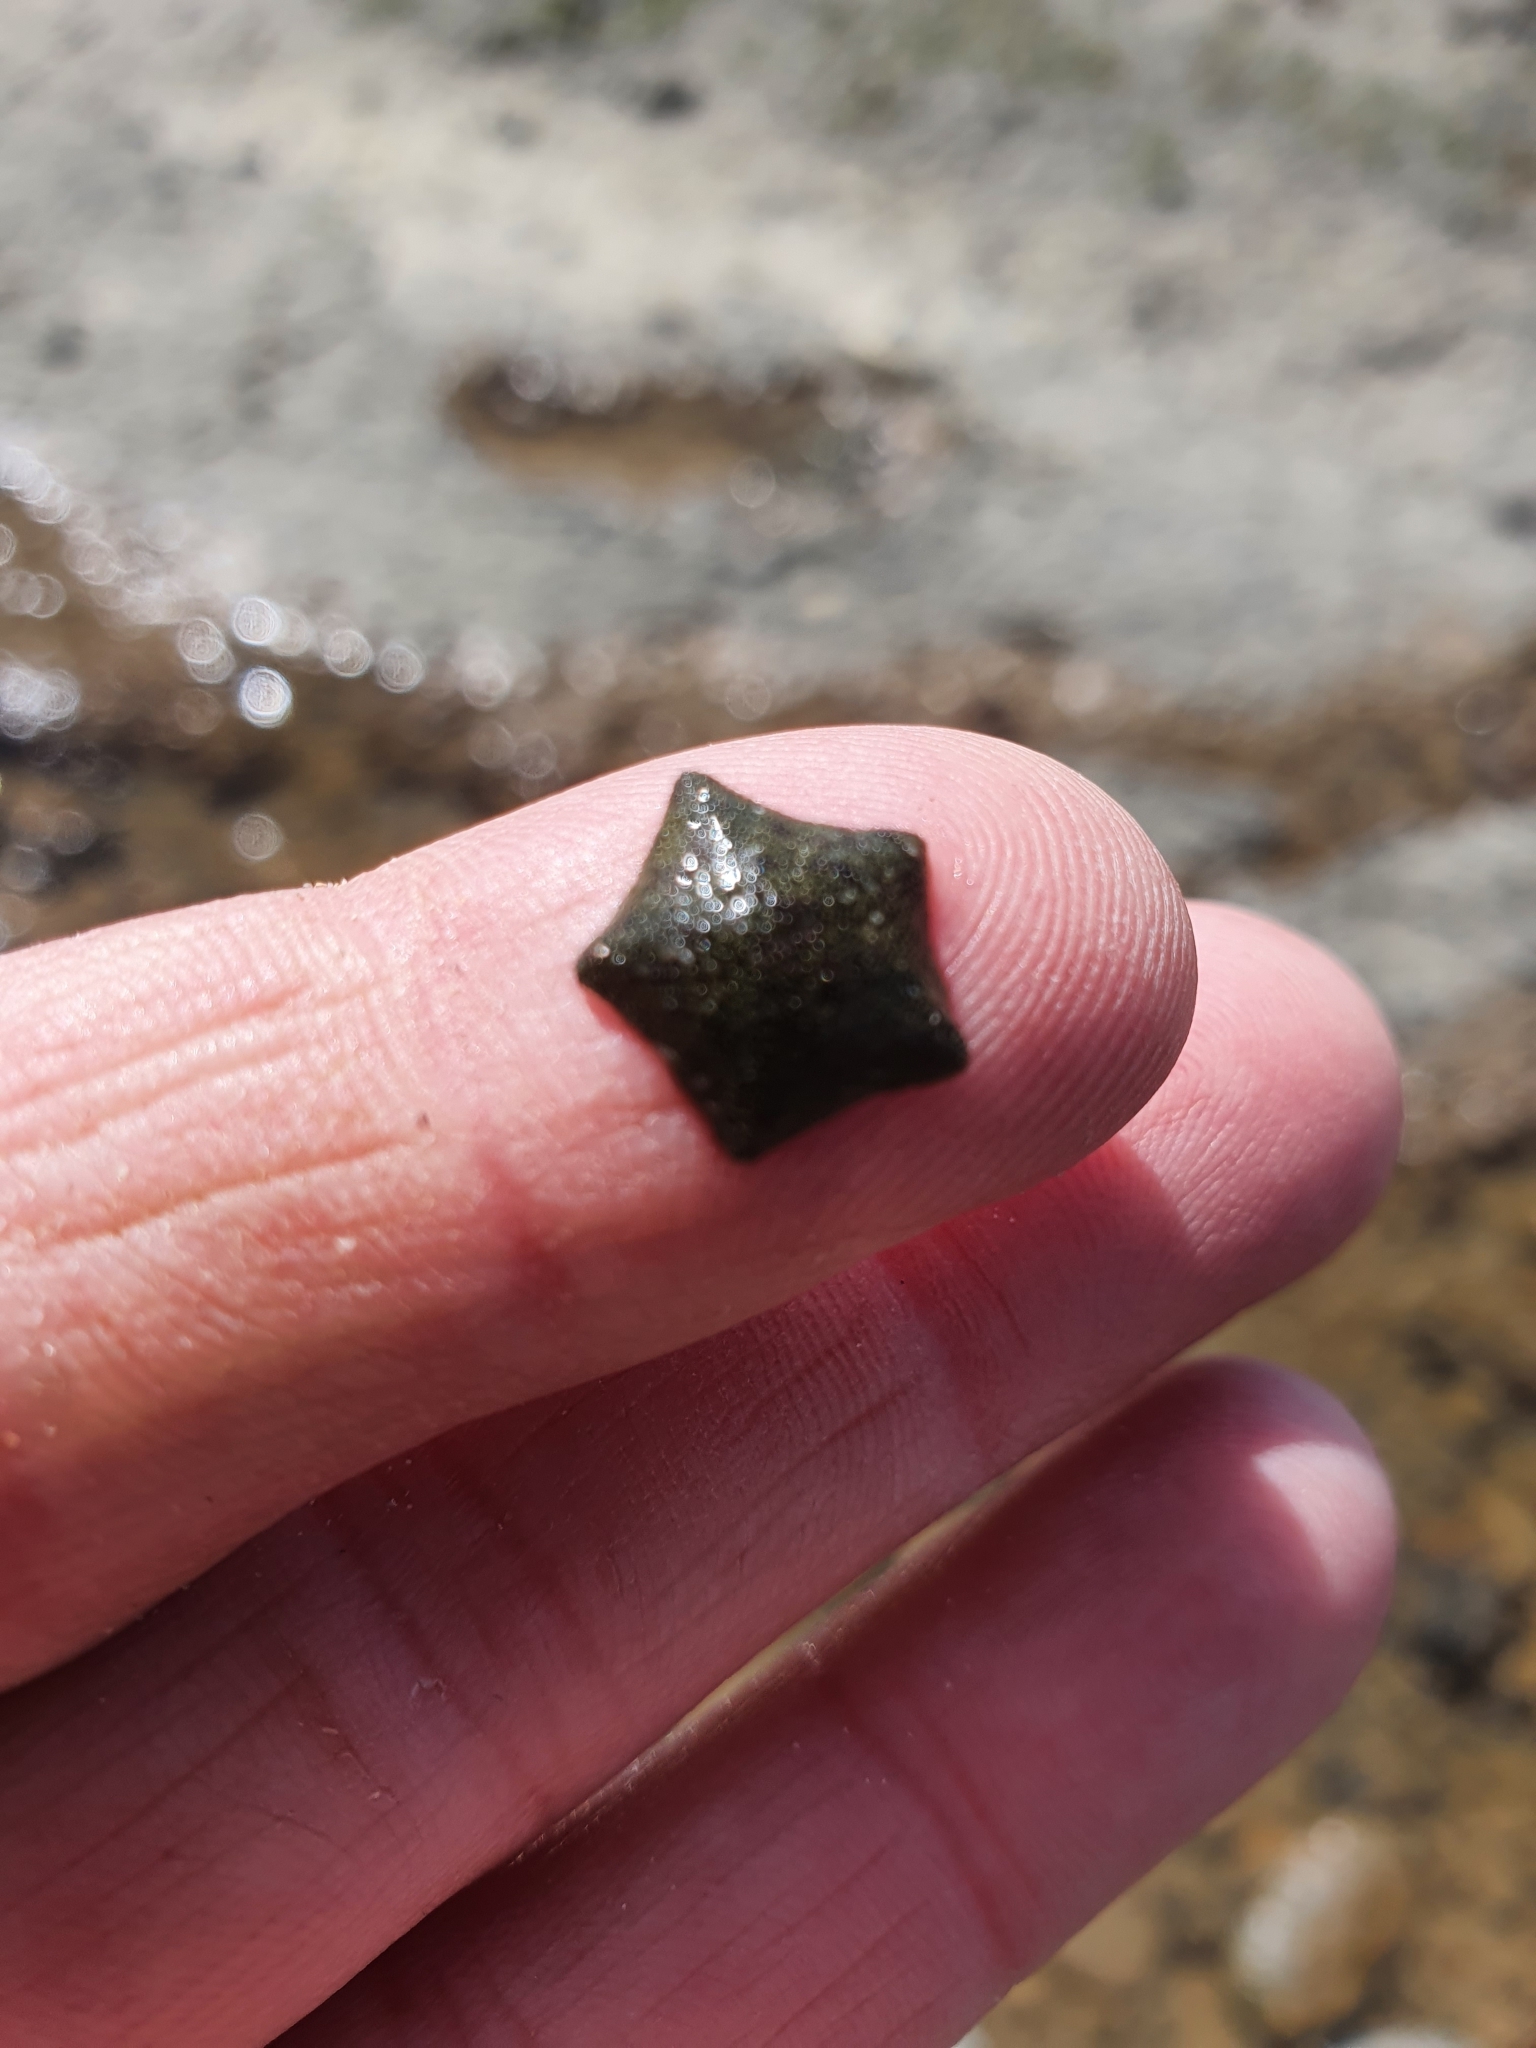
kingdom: Animalia
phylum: Echinodermata
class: Asteroidea
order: Valvatida
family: Asterinidae
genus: Parvulastra
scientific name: Parvulastra exigua
